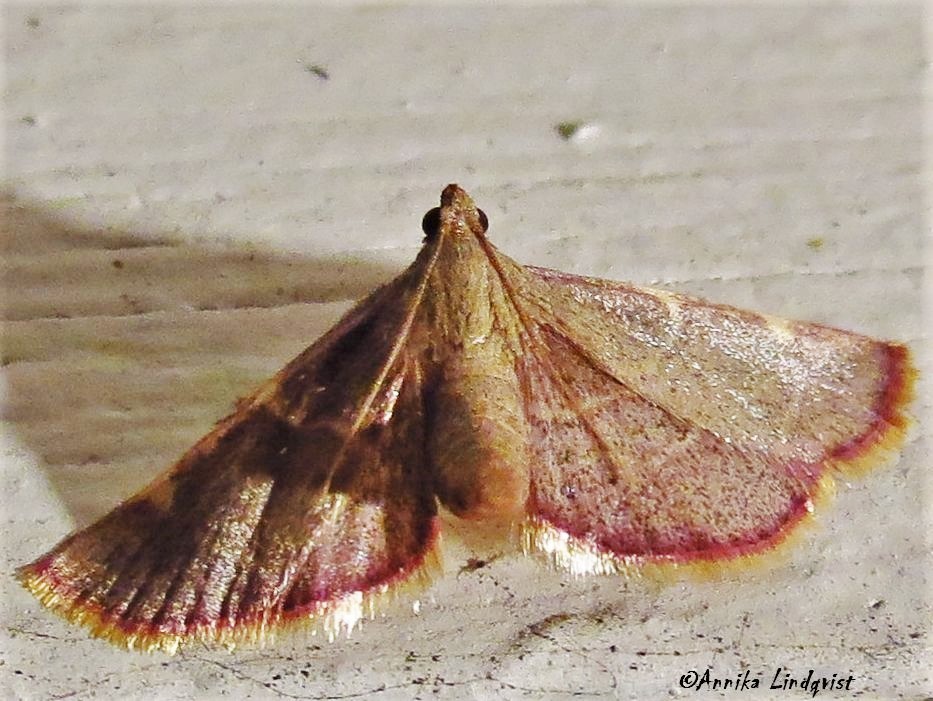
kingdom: Animalia
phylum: Arthropoda
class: Insecta
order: Lepidoptera
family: Pyralidae
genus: Hypsopygia
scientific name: Hypsopygia olinalis
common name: Yellow-fringed dolichomia moth
